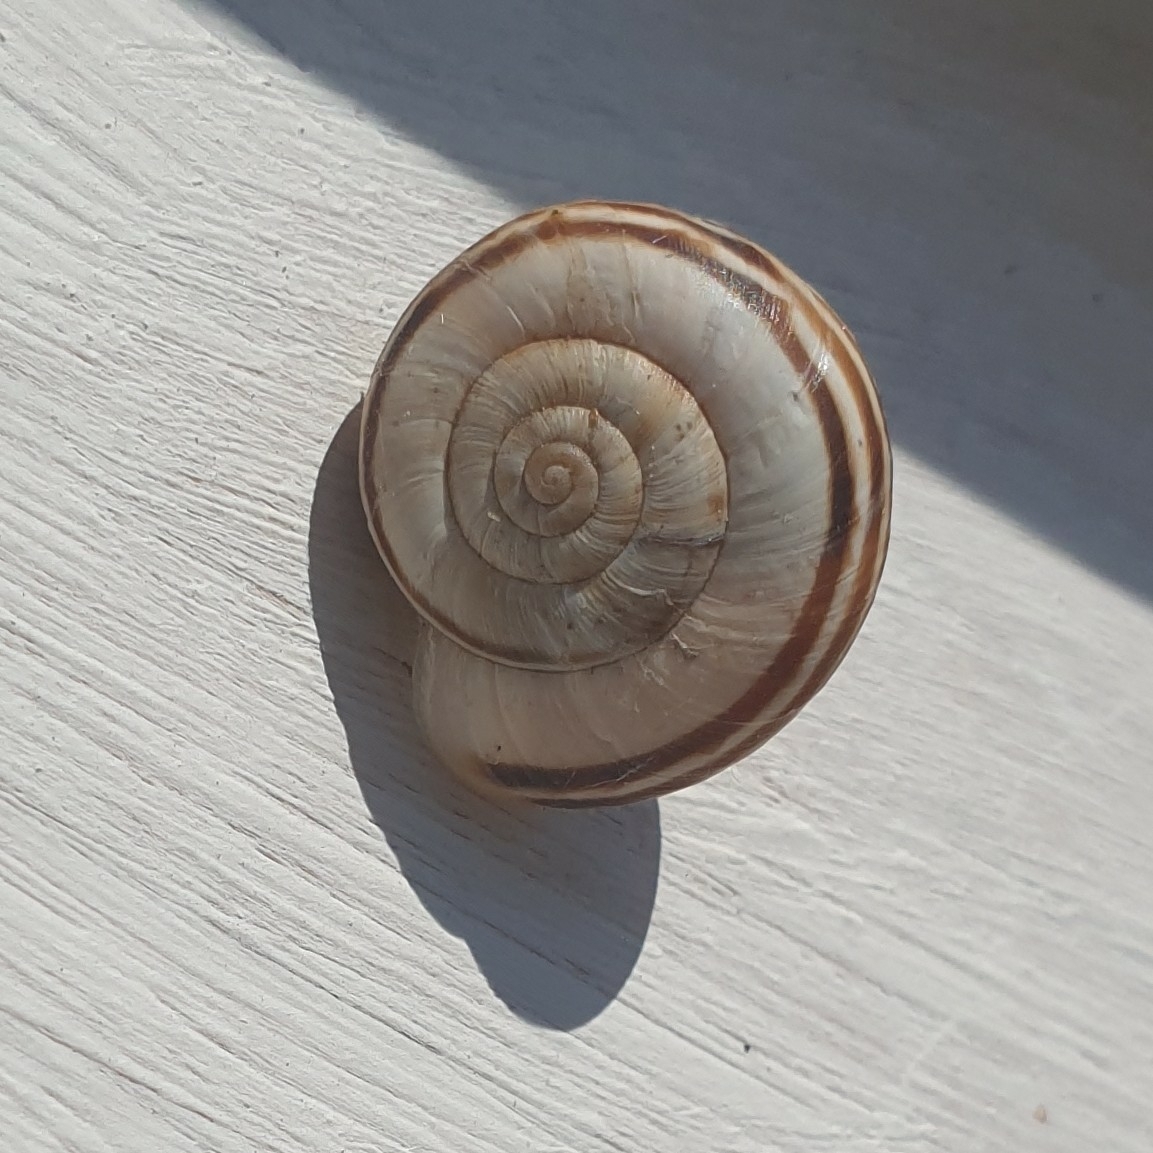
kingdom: Animalia
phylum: Mollusca
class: Gastropoda
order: Stylommatophora
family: Geomitridae
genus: Xerolenta
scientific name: Xerolenta obvia
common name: White heath snail
